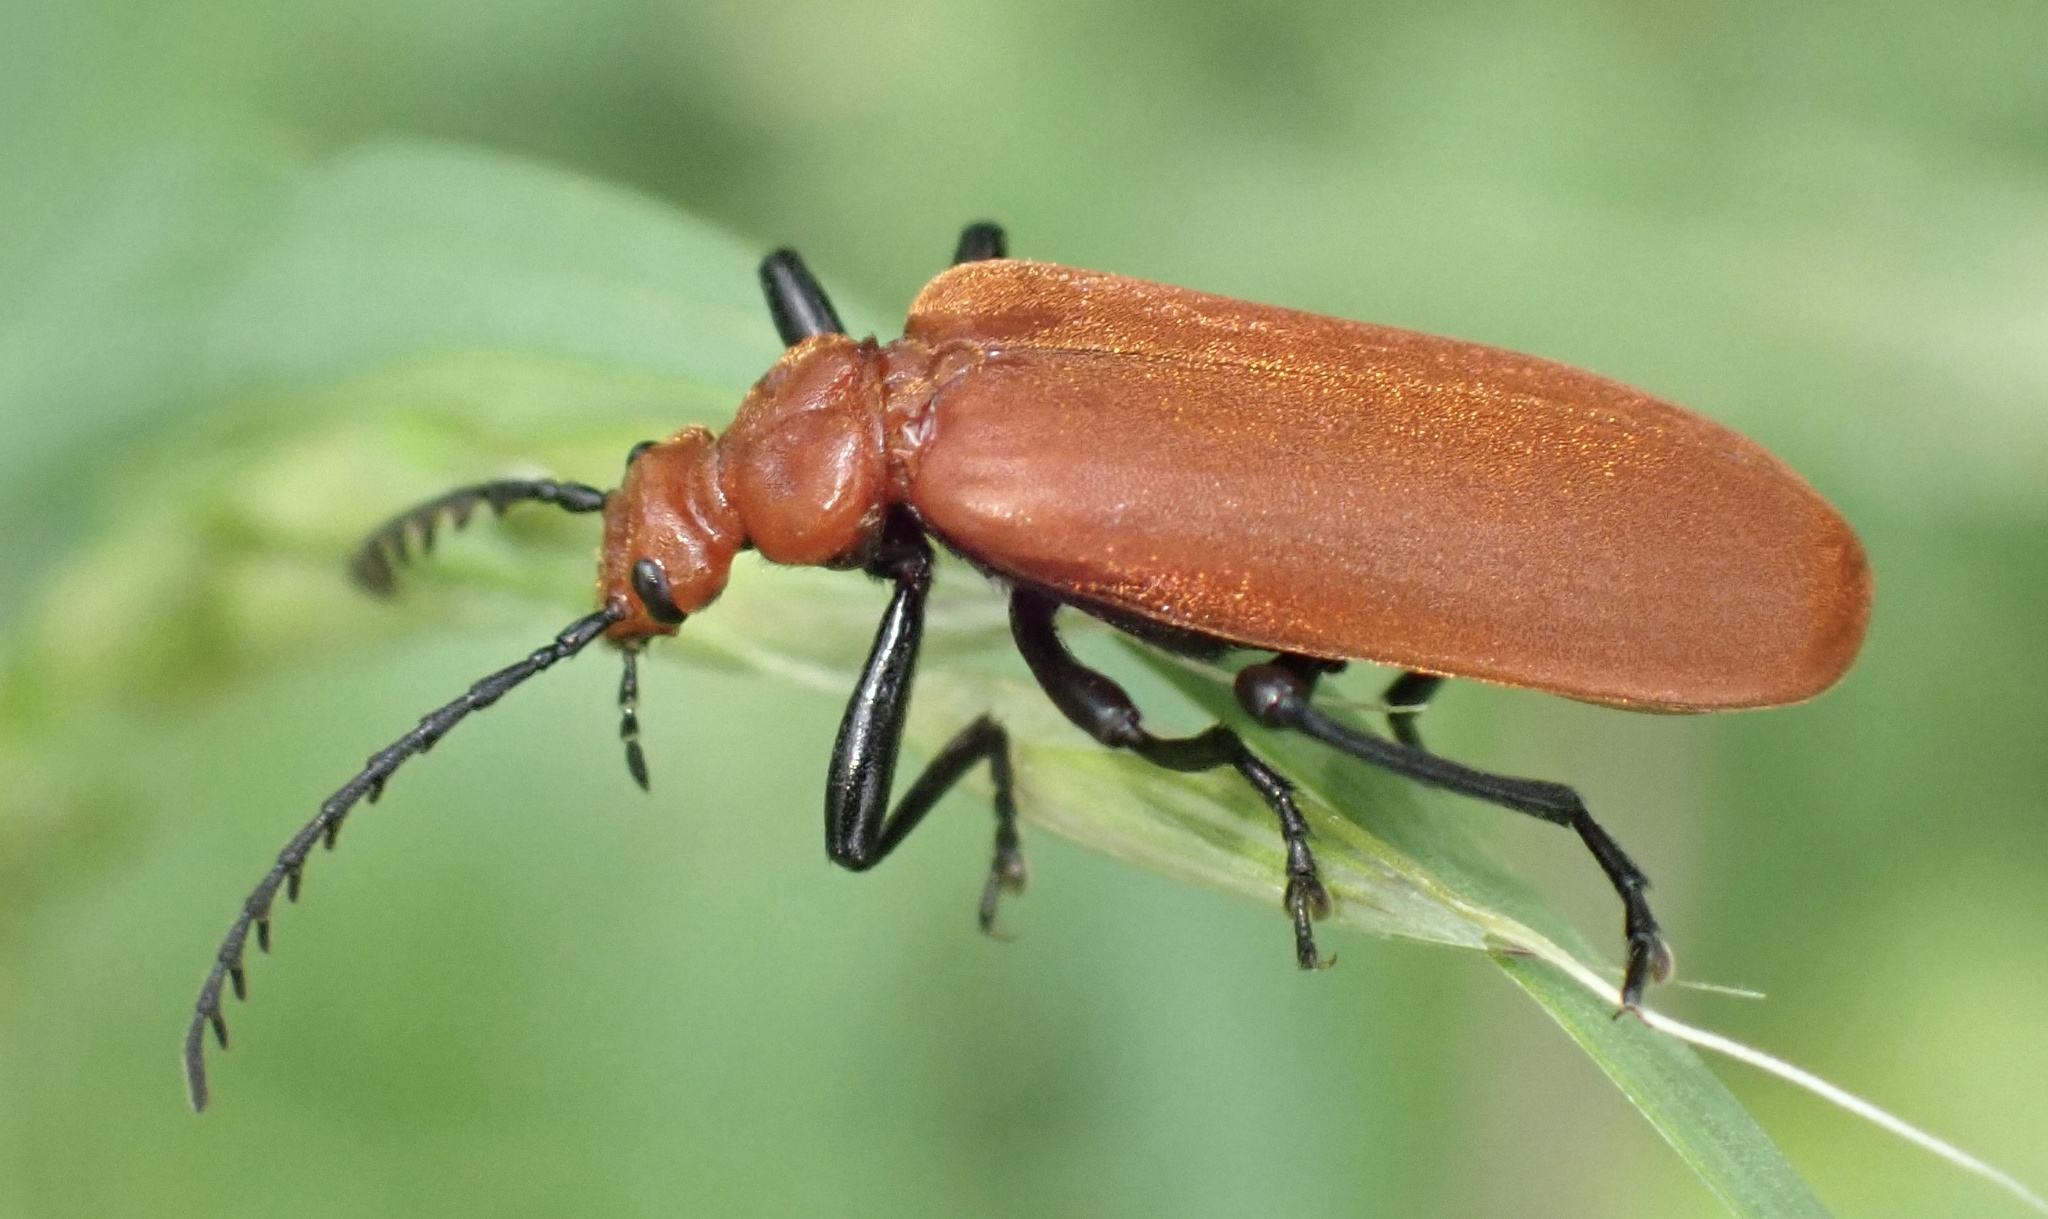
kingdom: Animalia
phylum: Arthropoda
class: Insecta
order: Coleoptera
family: Pyrochroidae
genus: Pyrochroa
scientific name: Pyrochroa serraticornis
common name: Red-headed cardinal beetle
